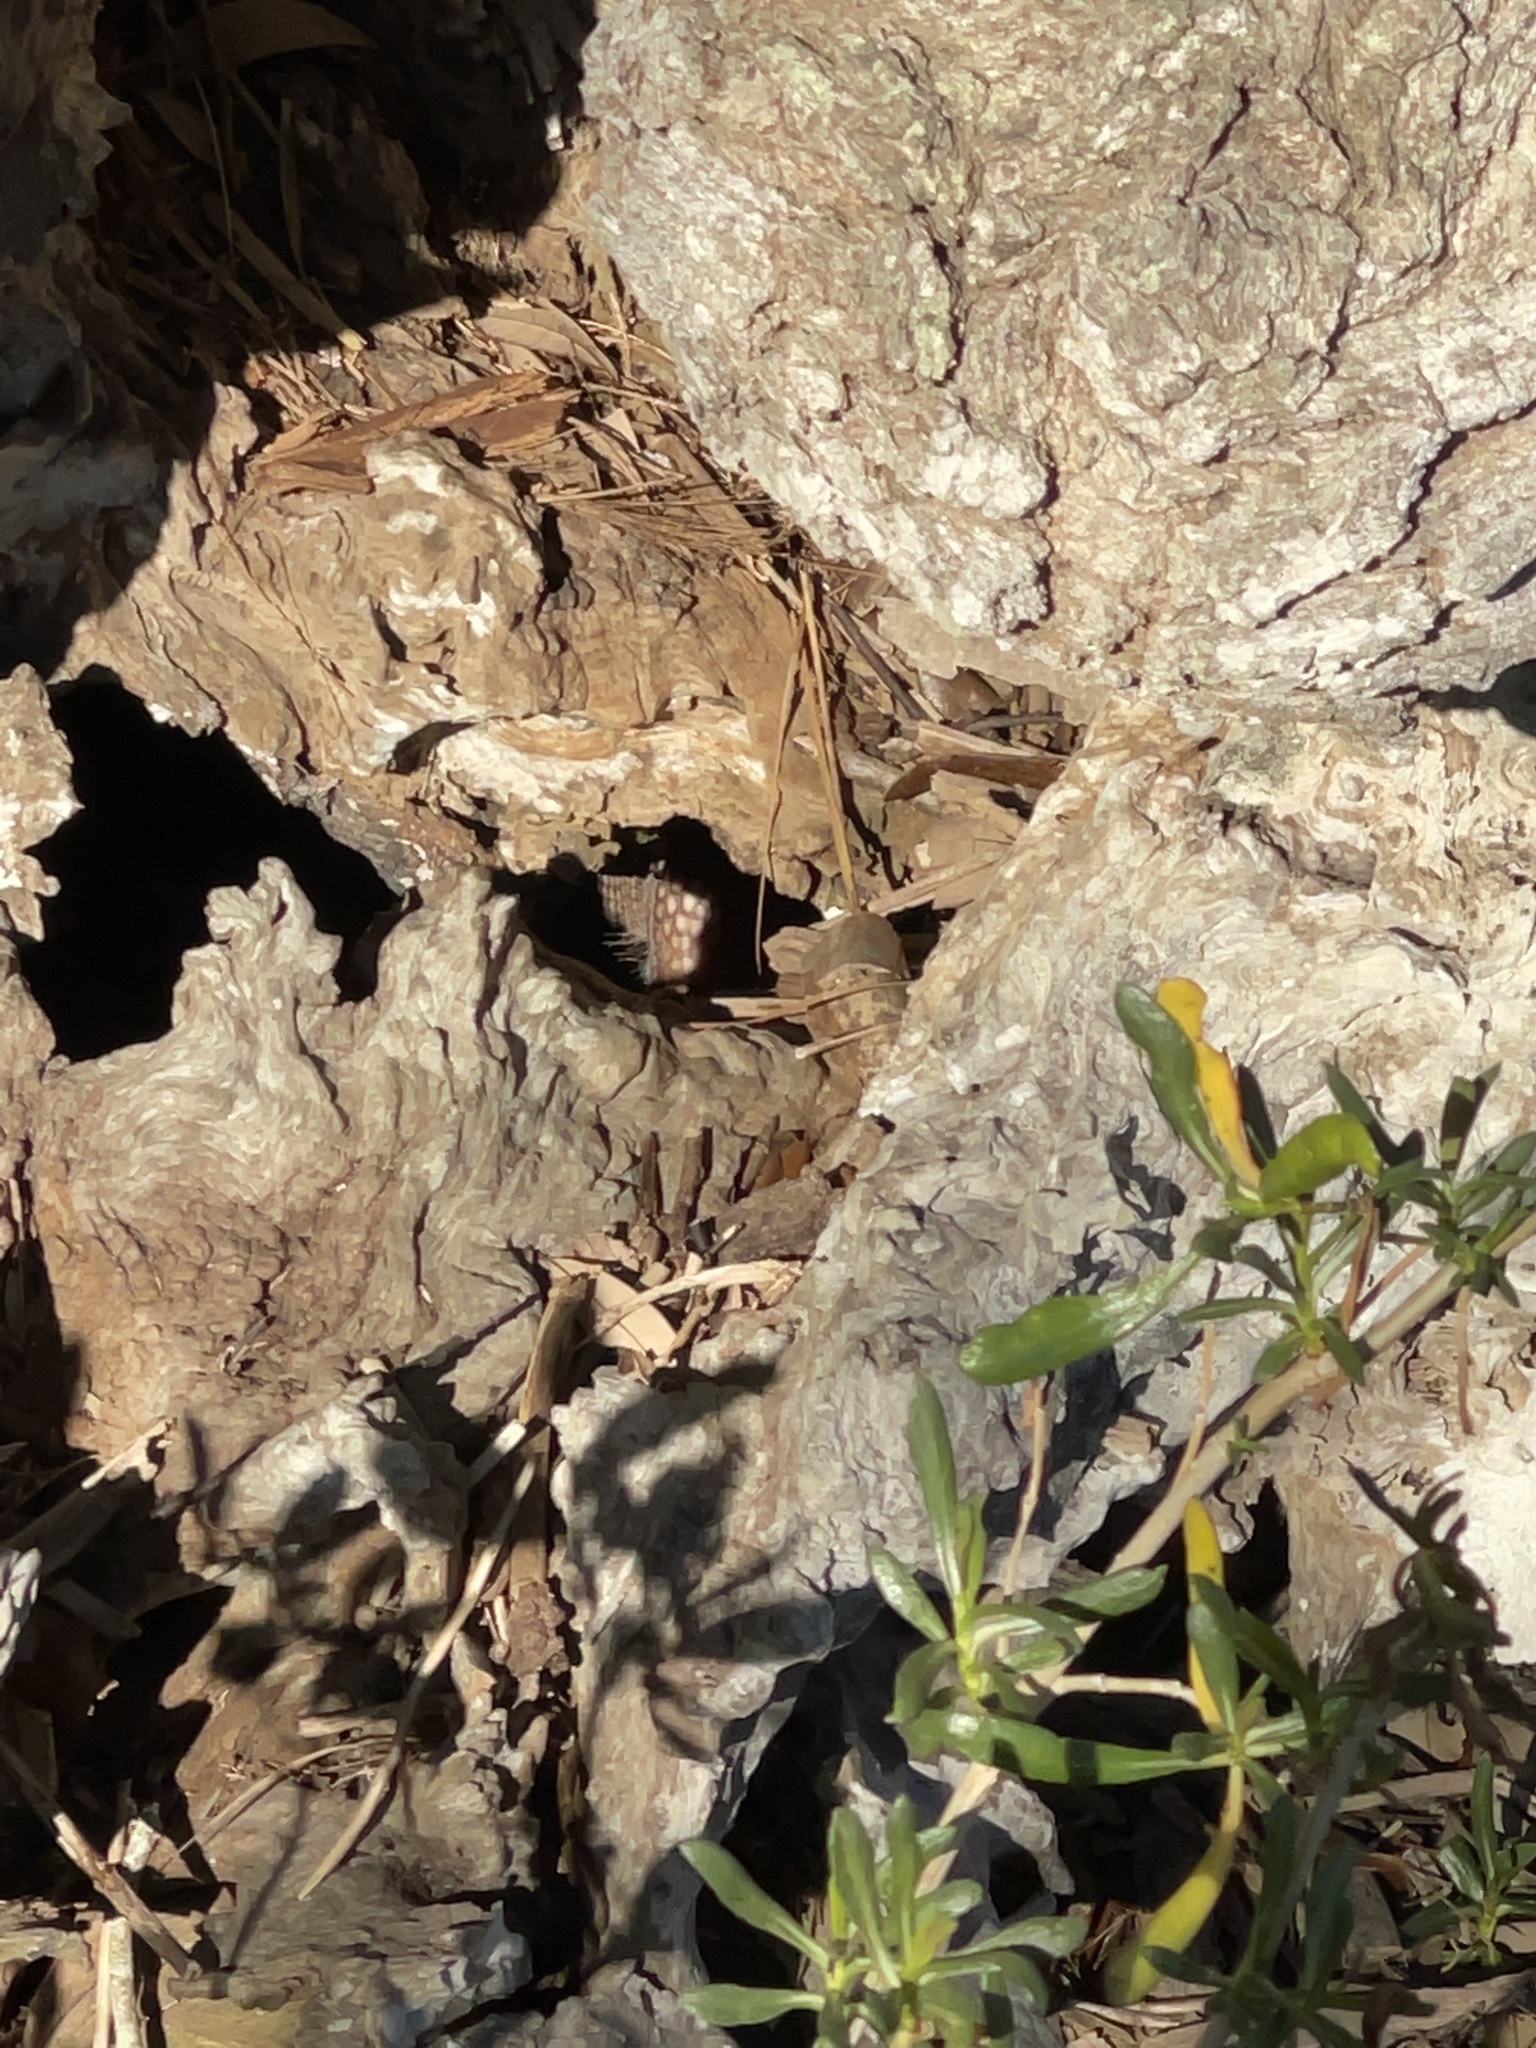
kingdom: Animalia
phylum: Chordata
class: Mammalia
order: Cingulata
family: Dasypodidae
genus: Dasypus
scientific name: Dasypus novemcinctus
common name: Nine-banded armadillo
